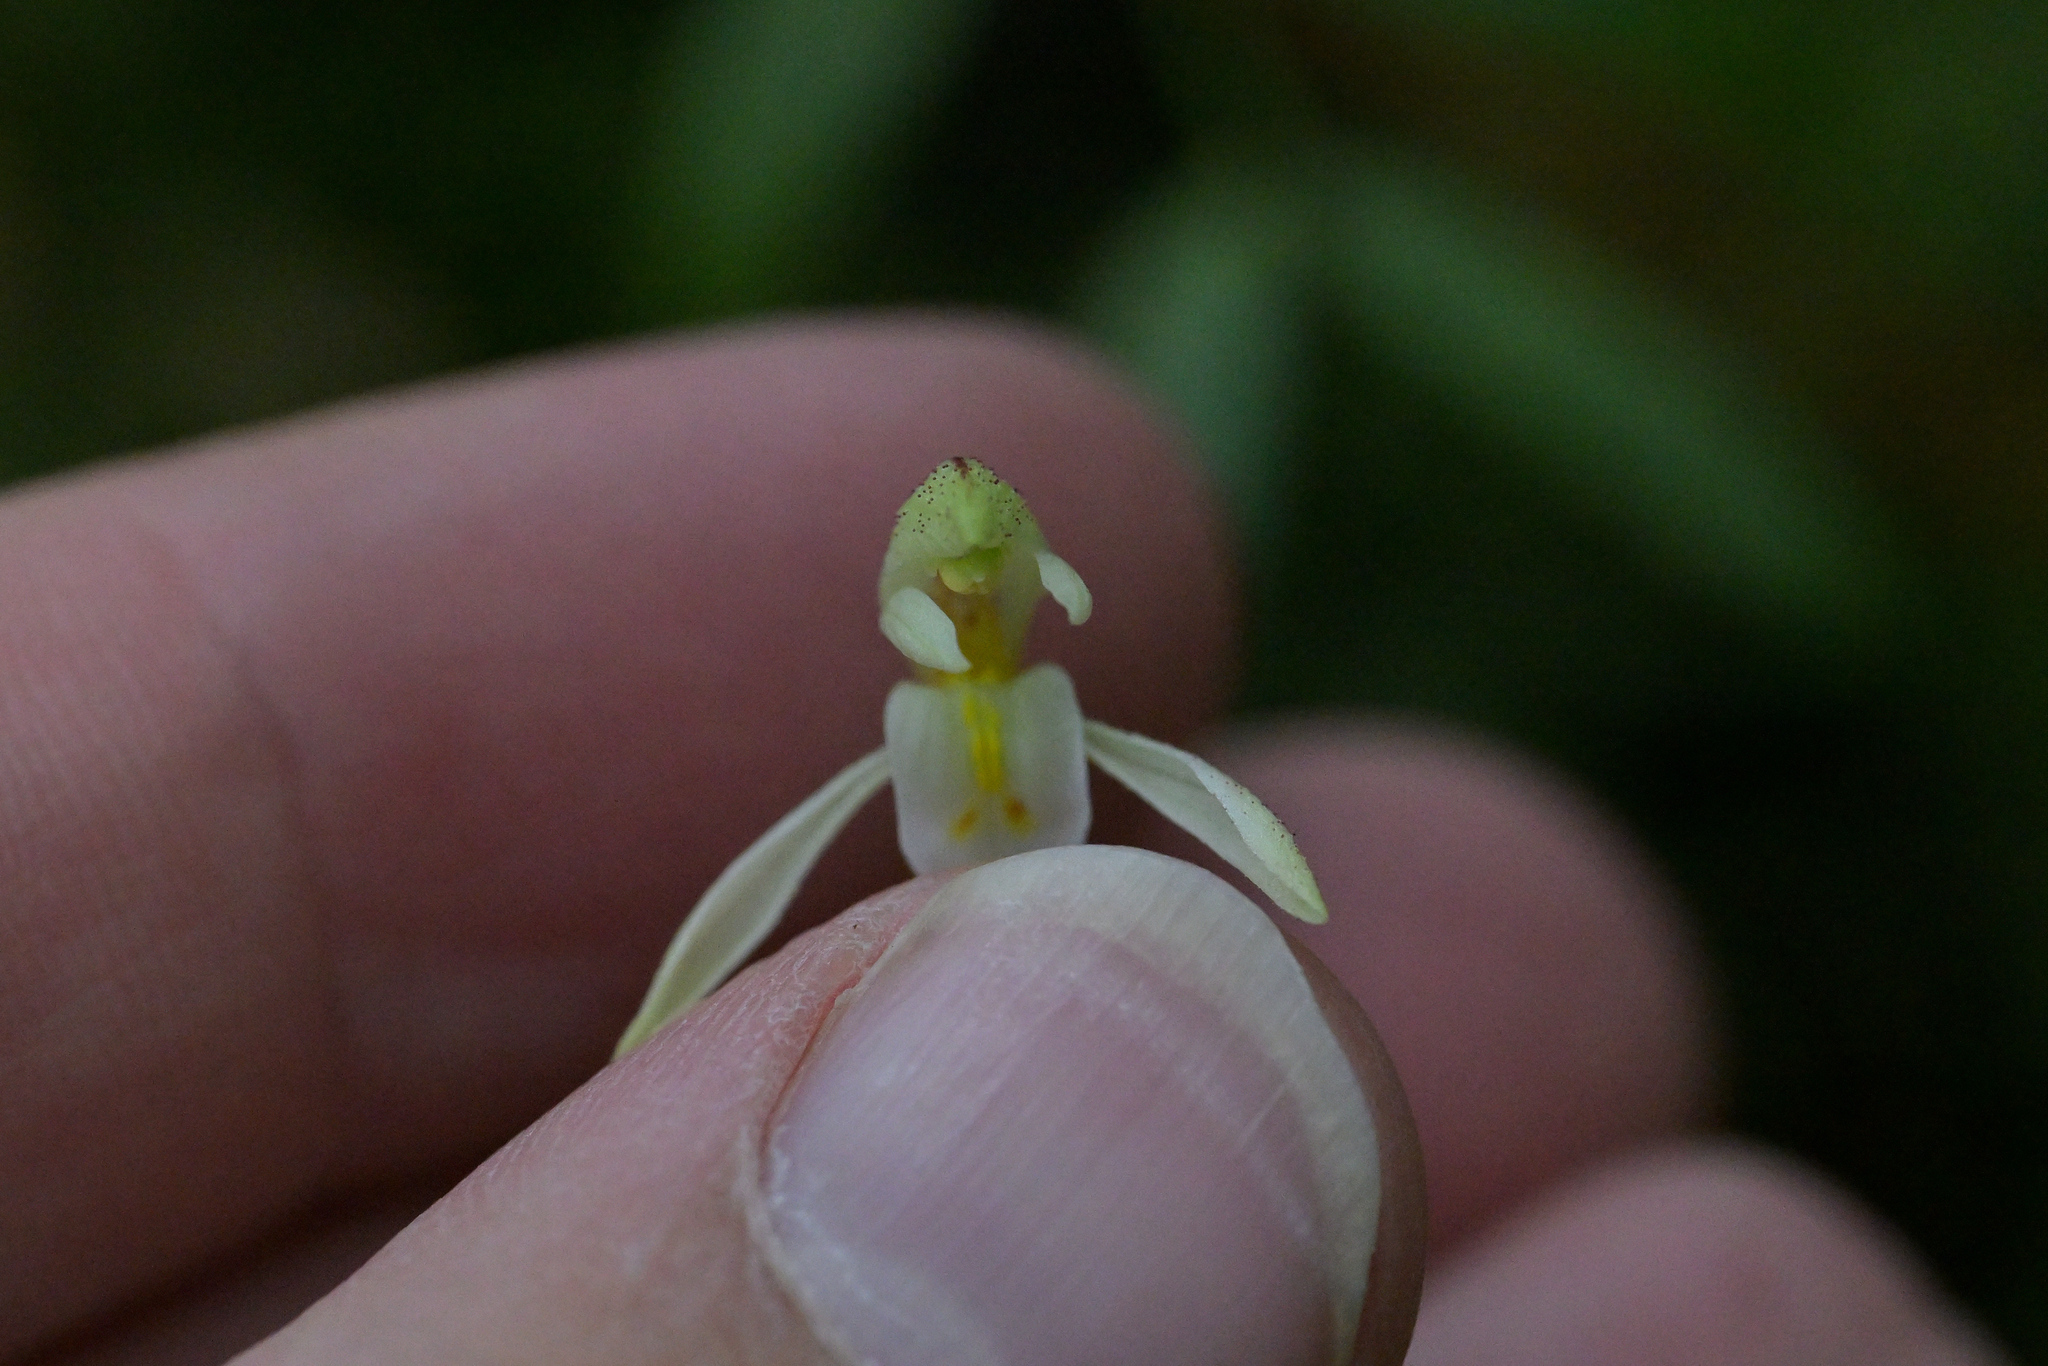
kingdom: Plantae
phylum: Tracheophyta
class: Liliopsida
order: Asparagales
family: Orchidaceae
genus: Aporostylis
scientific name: Aporostylis bifolia
